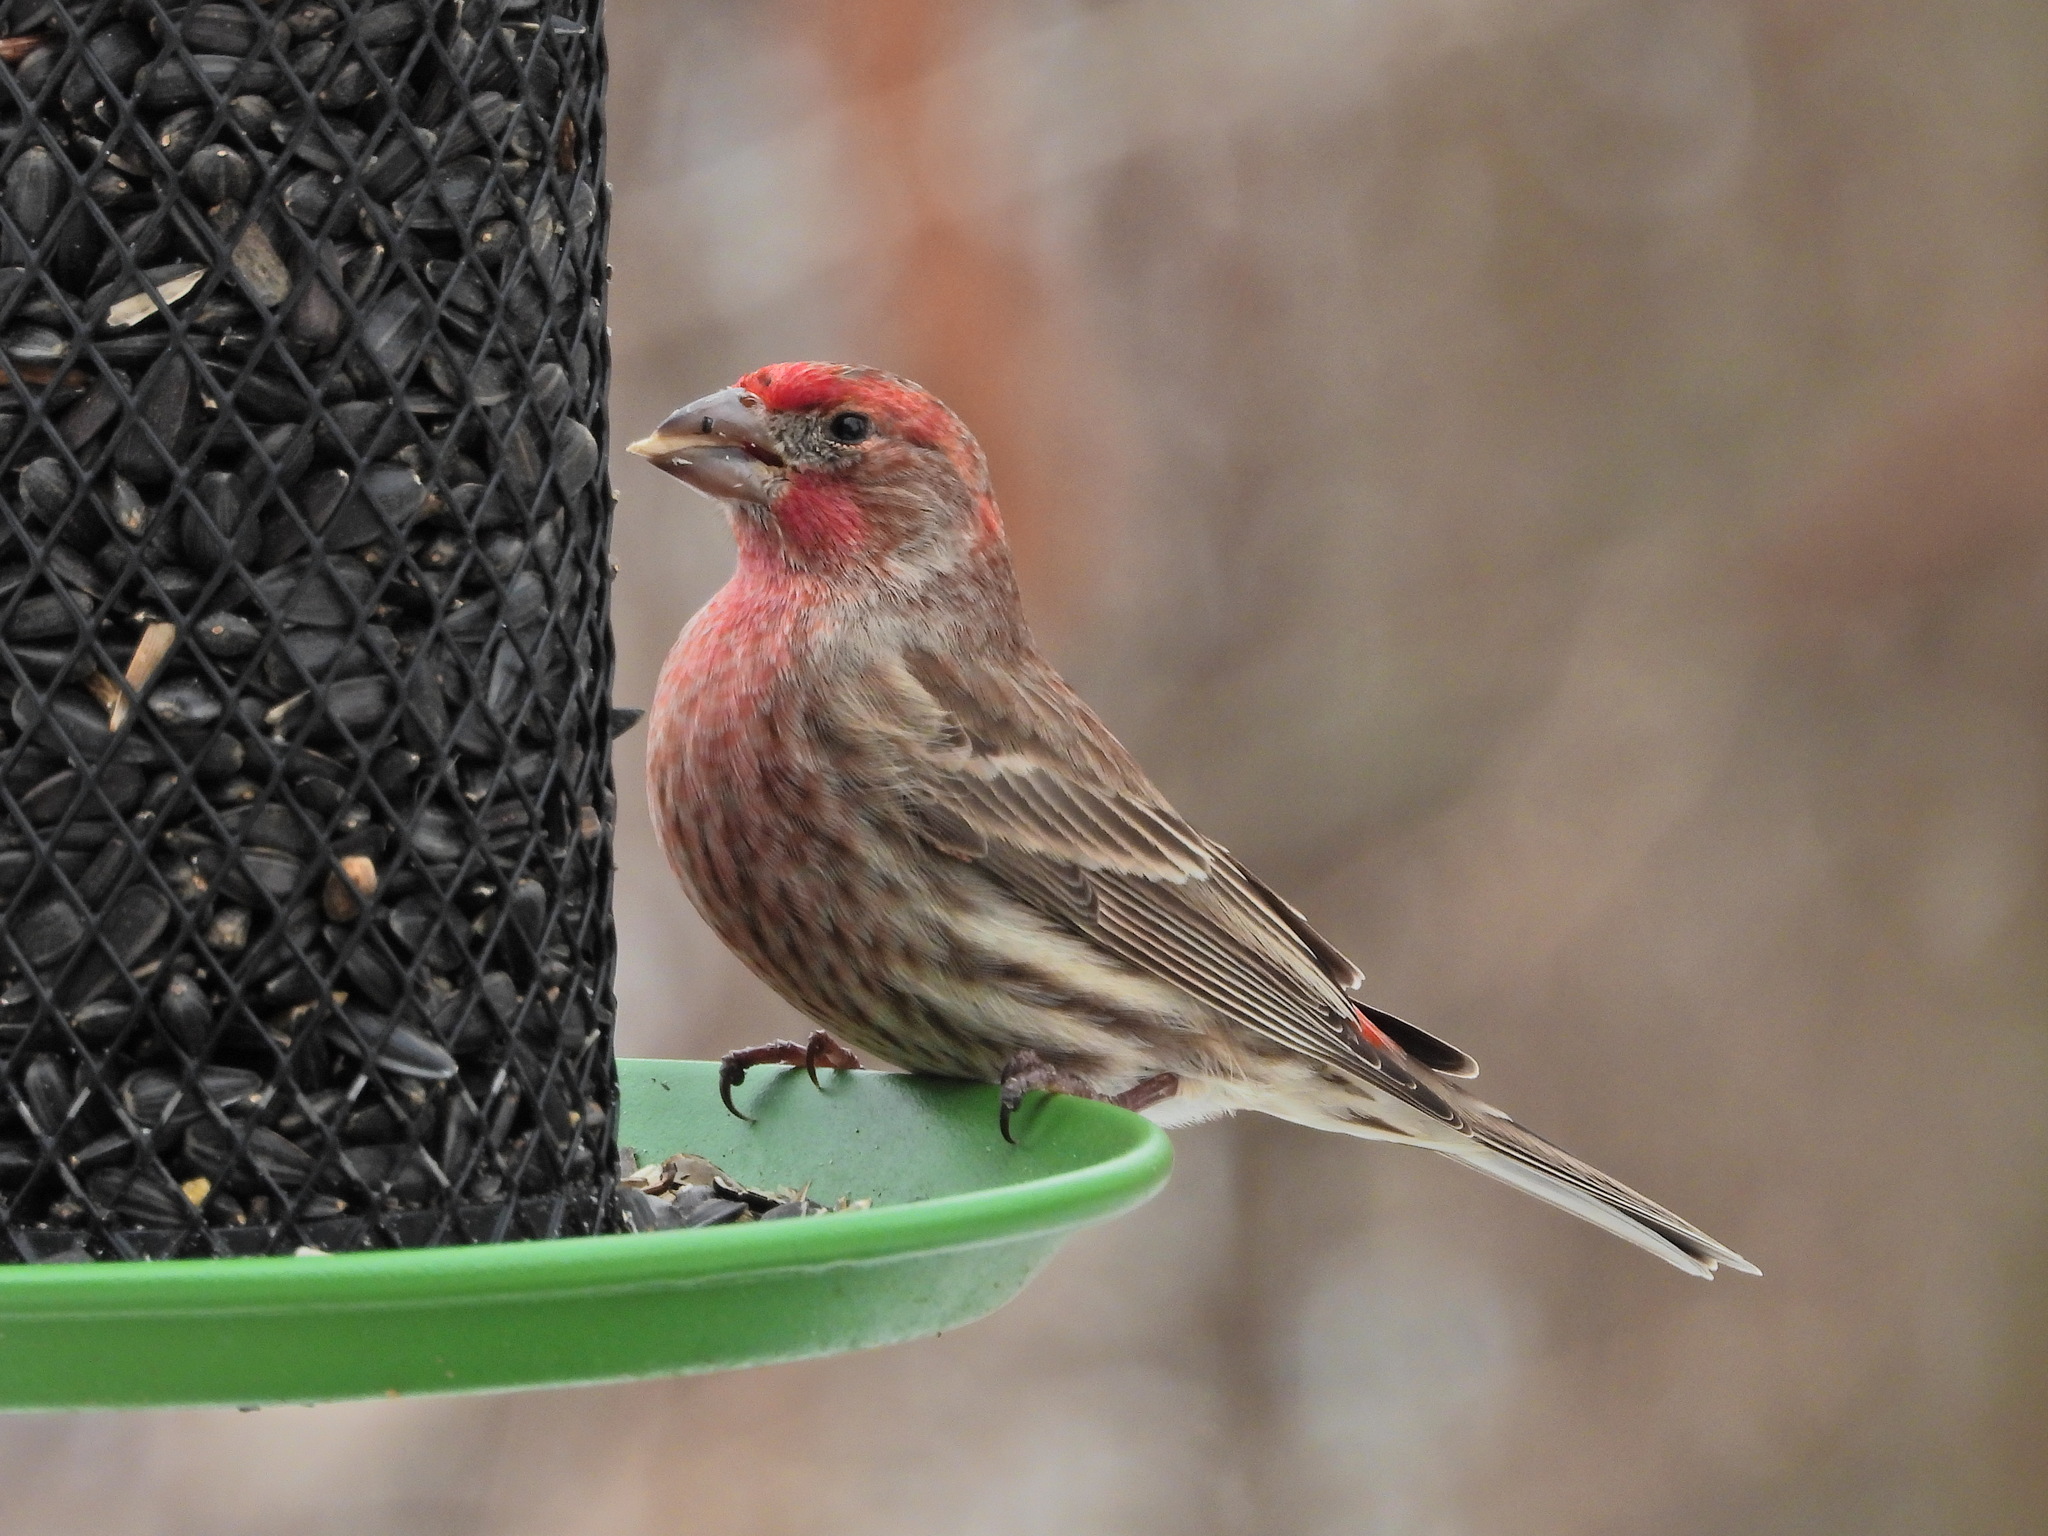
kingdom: Animalia
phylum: Chordata
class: Aves
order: Passeriformes
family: Fringillidae
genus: Haemorhous
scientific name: Haemorhous mexicanus
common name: House finch
